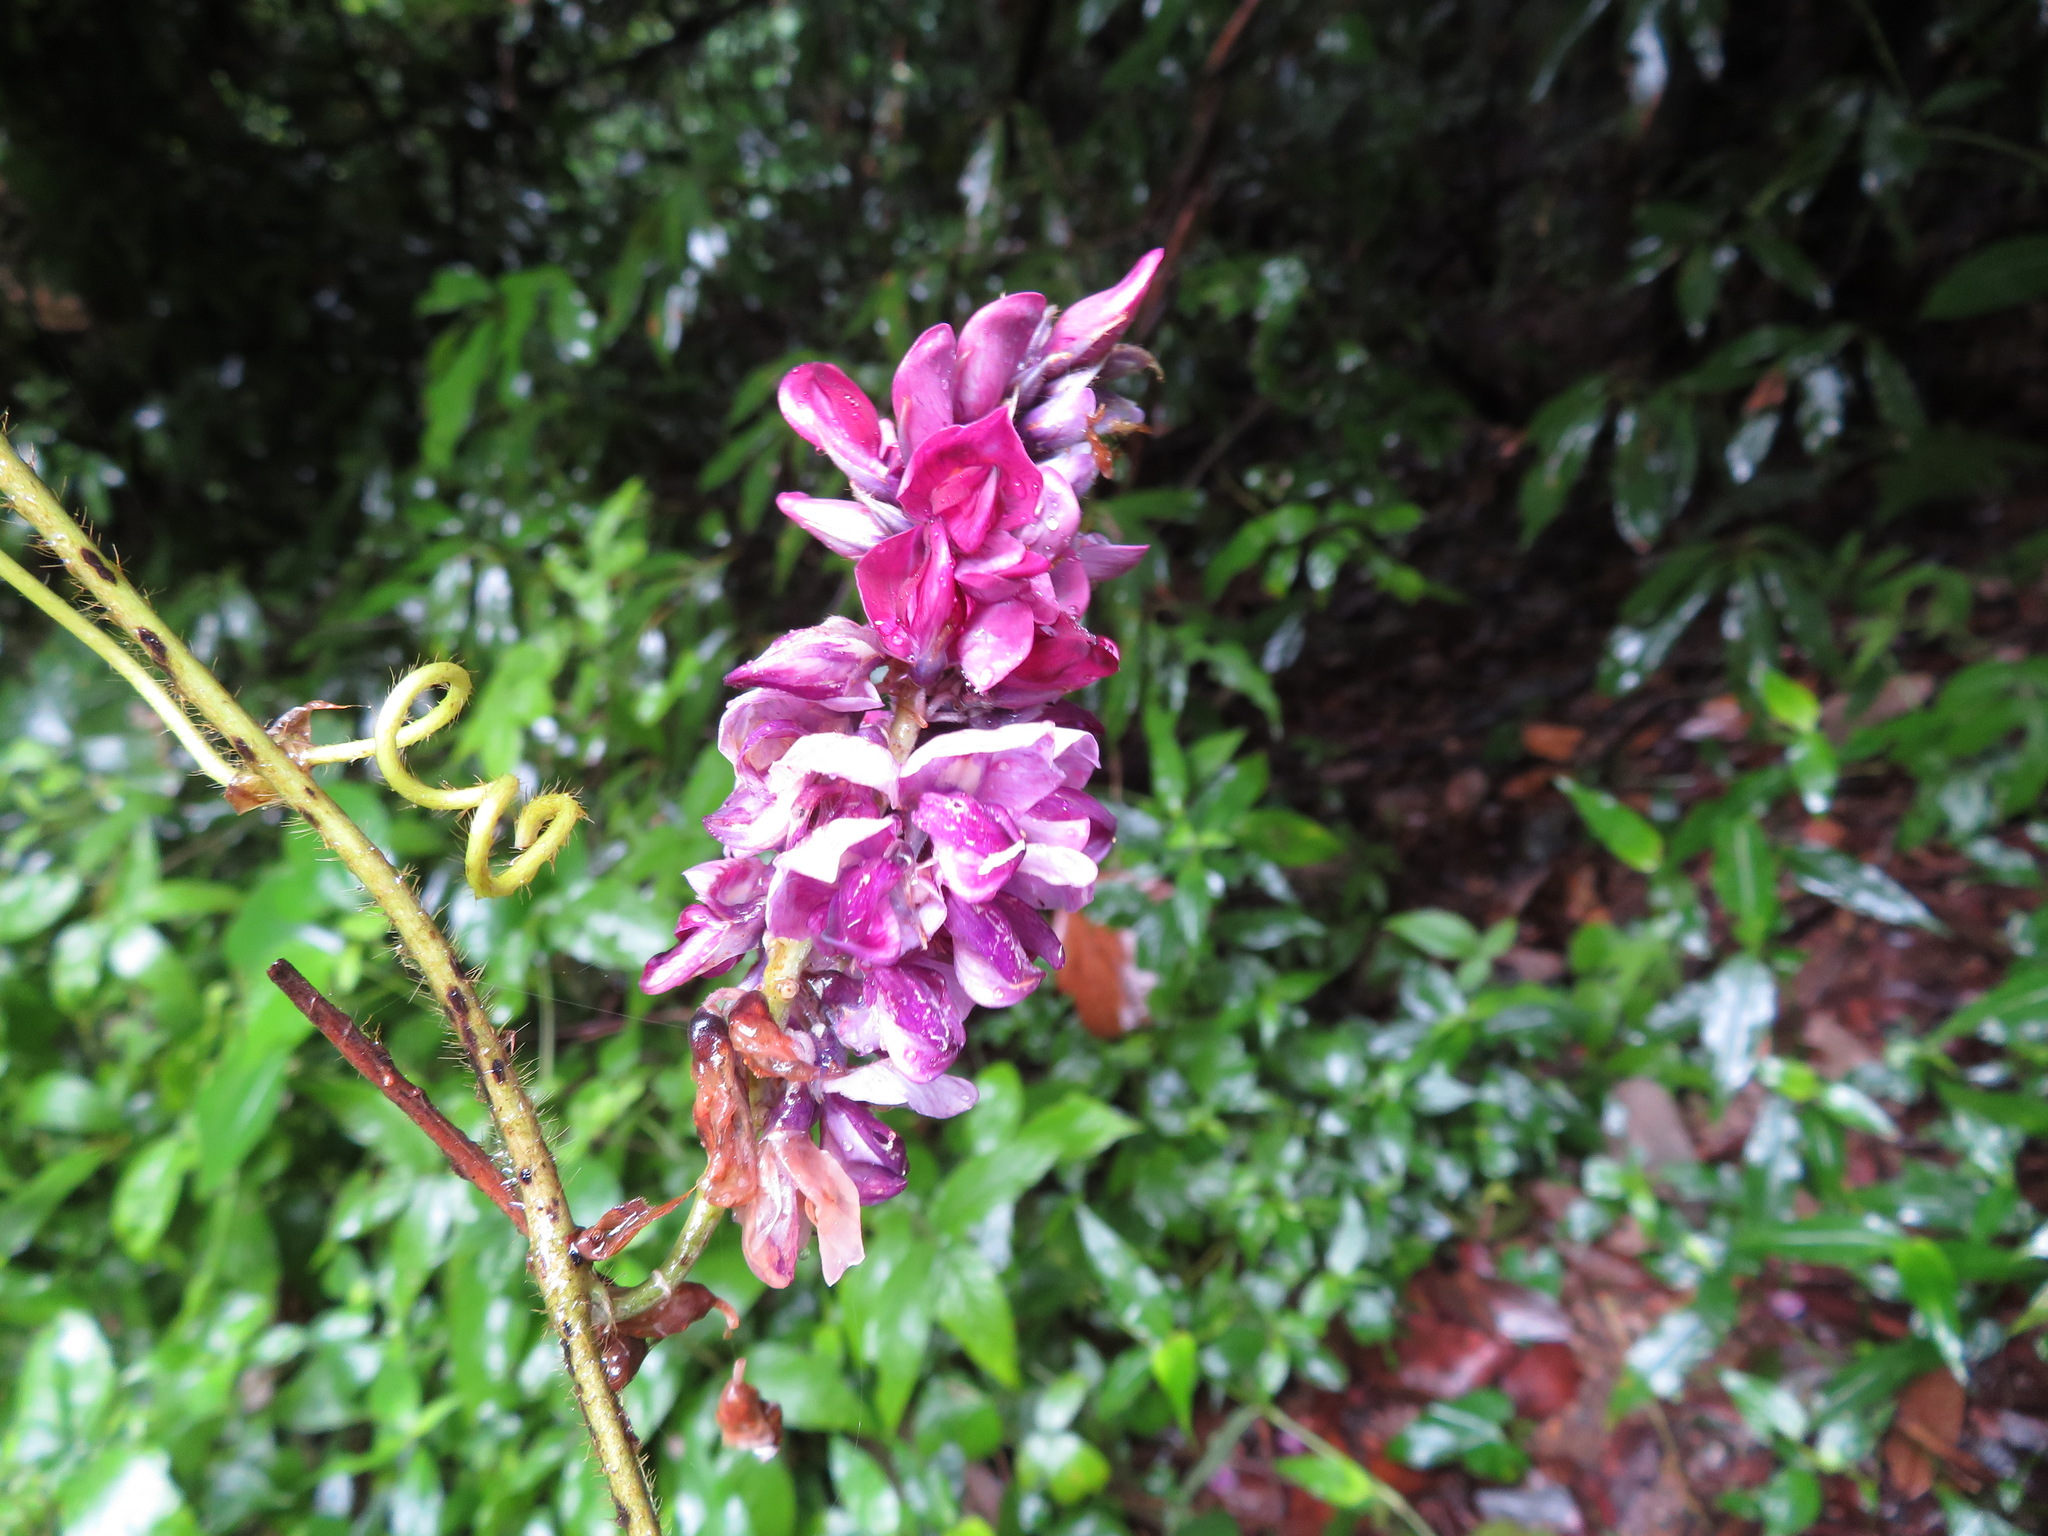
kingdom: Plantae
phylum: Tracheophyta
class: Magnoliopsida
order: Fabales
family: Fabaceae
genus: Pueraria
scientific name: Pueraria montana
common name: Kudzu
